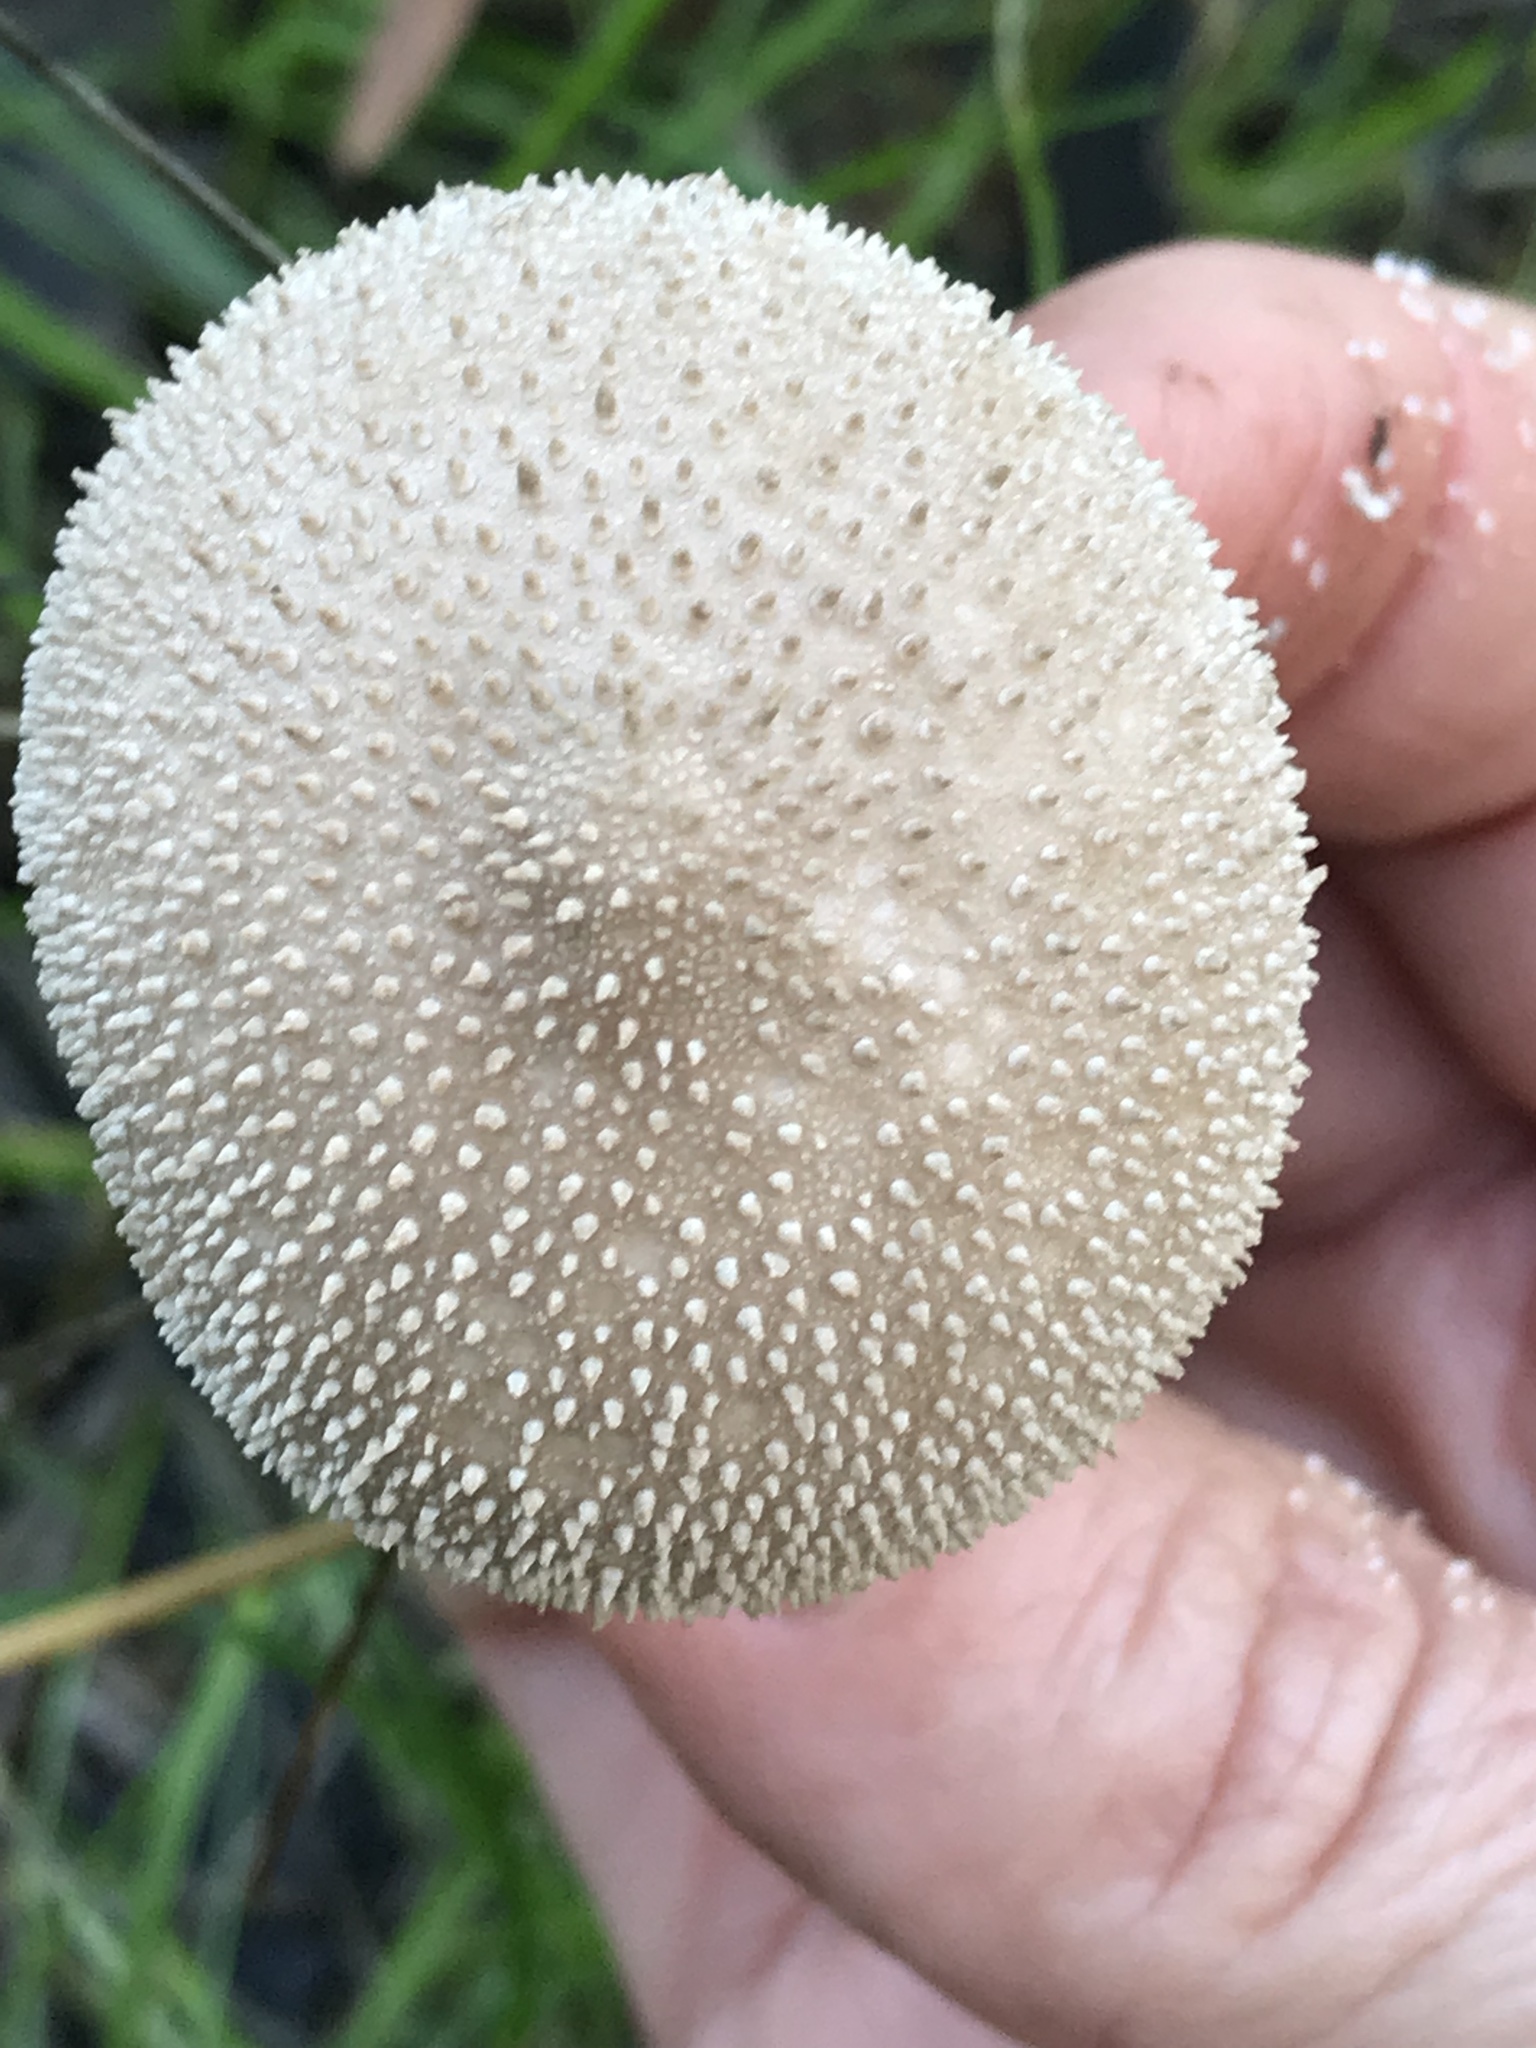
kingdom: Fungi
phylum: Basidiomycota
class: Agaricomycetes
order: Agaricales
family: Lycoperdaceae
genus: Lycoperdon
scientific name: Lycoperdon perlatum
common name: Common puffball
